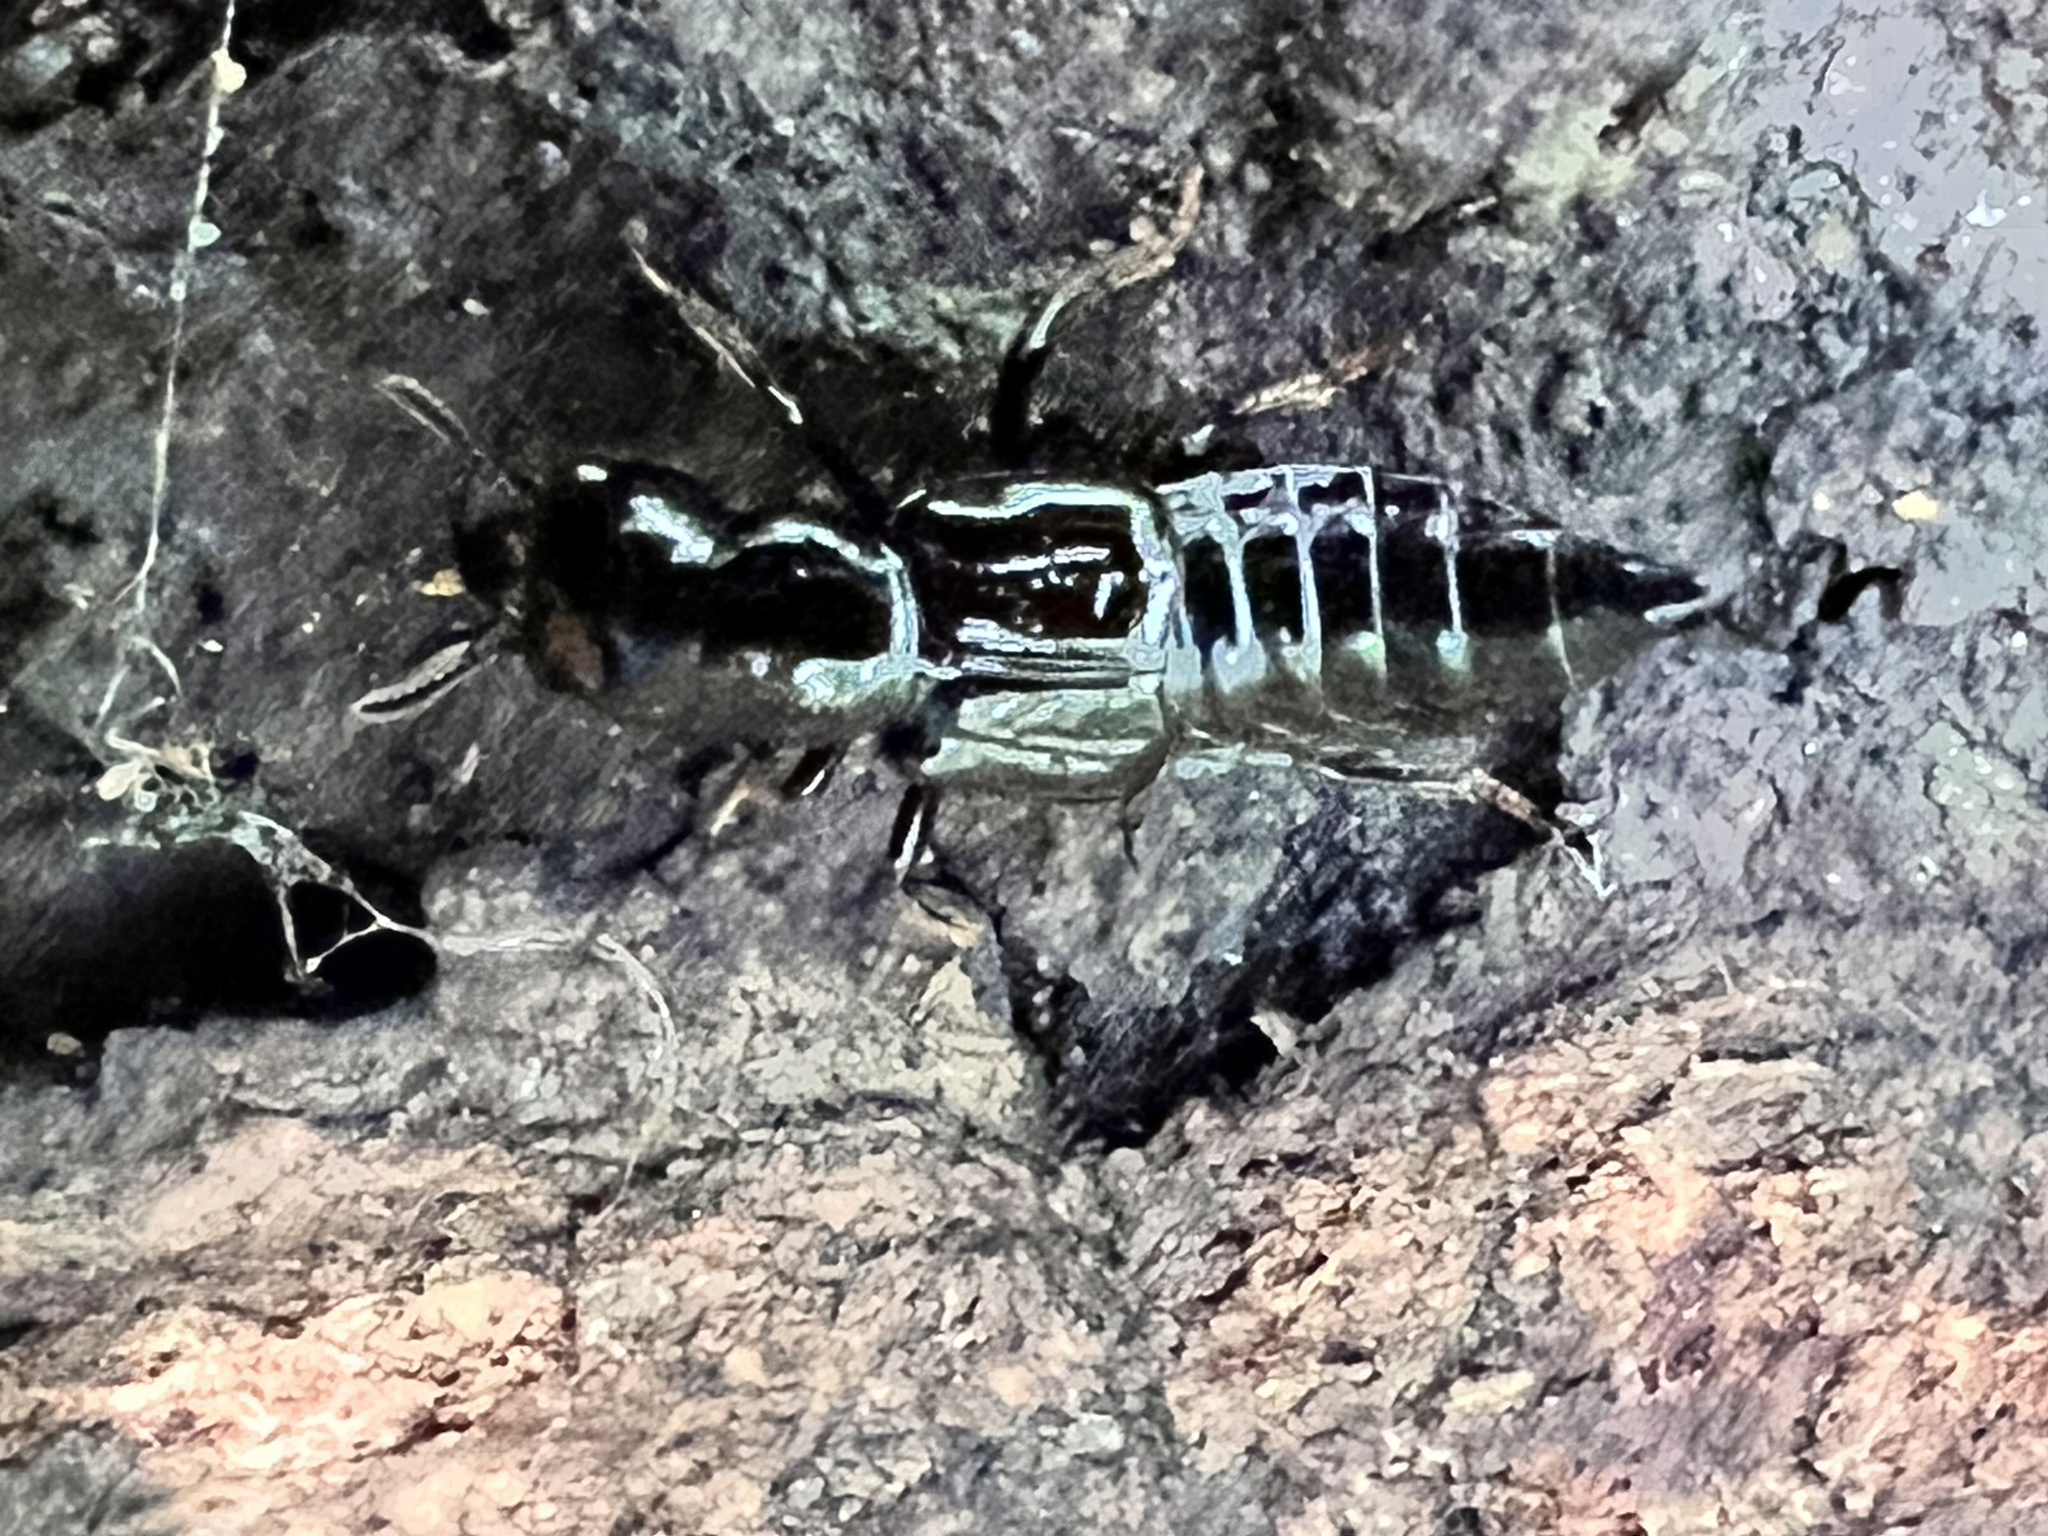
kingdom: Animalia
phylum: Arthropoda
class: Insecta
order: Coleoptera
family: Staphylinidae
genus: Oxyporus
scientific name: Oxyporus stygicus
